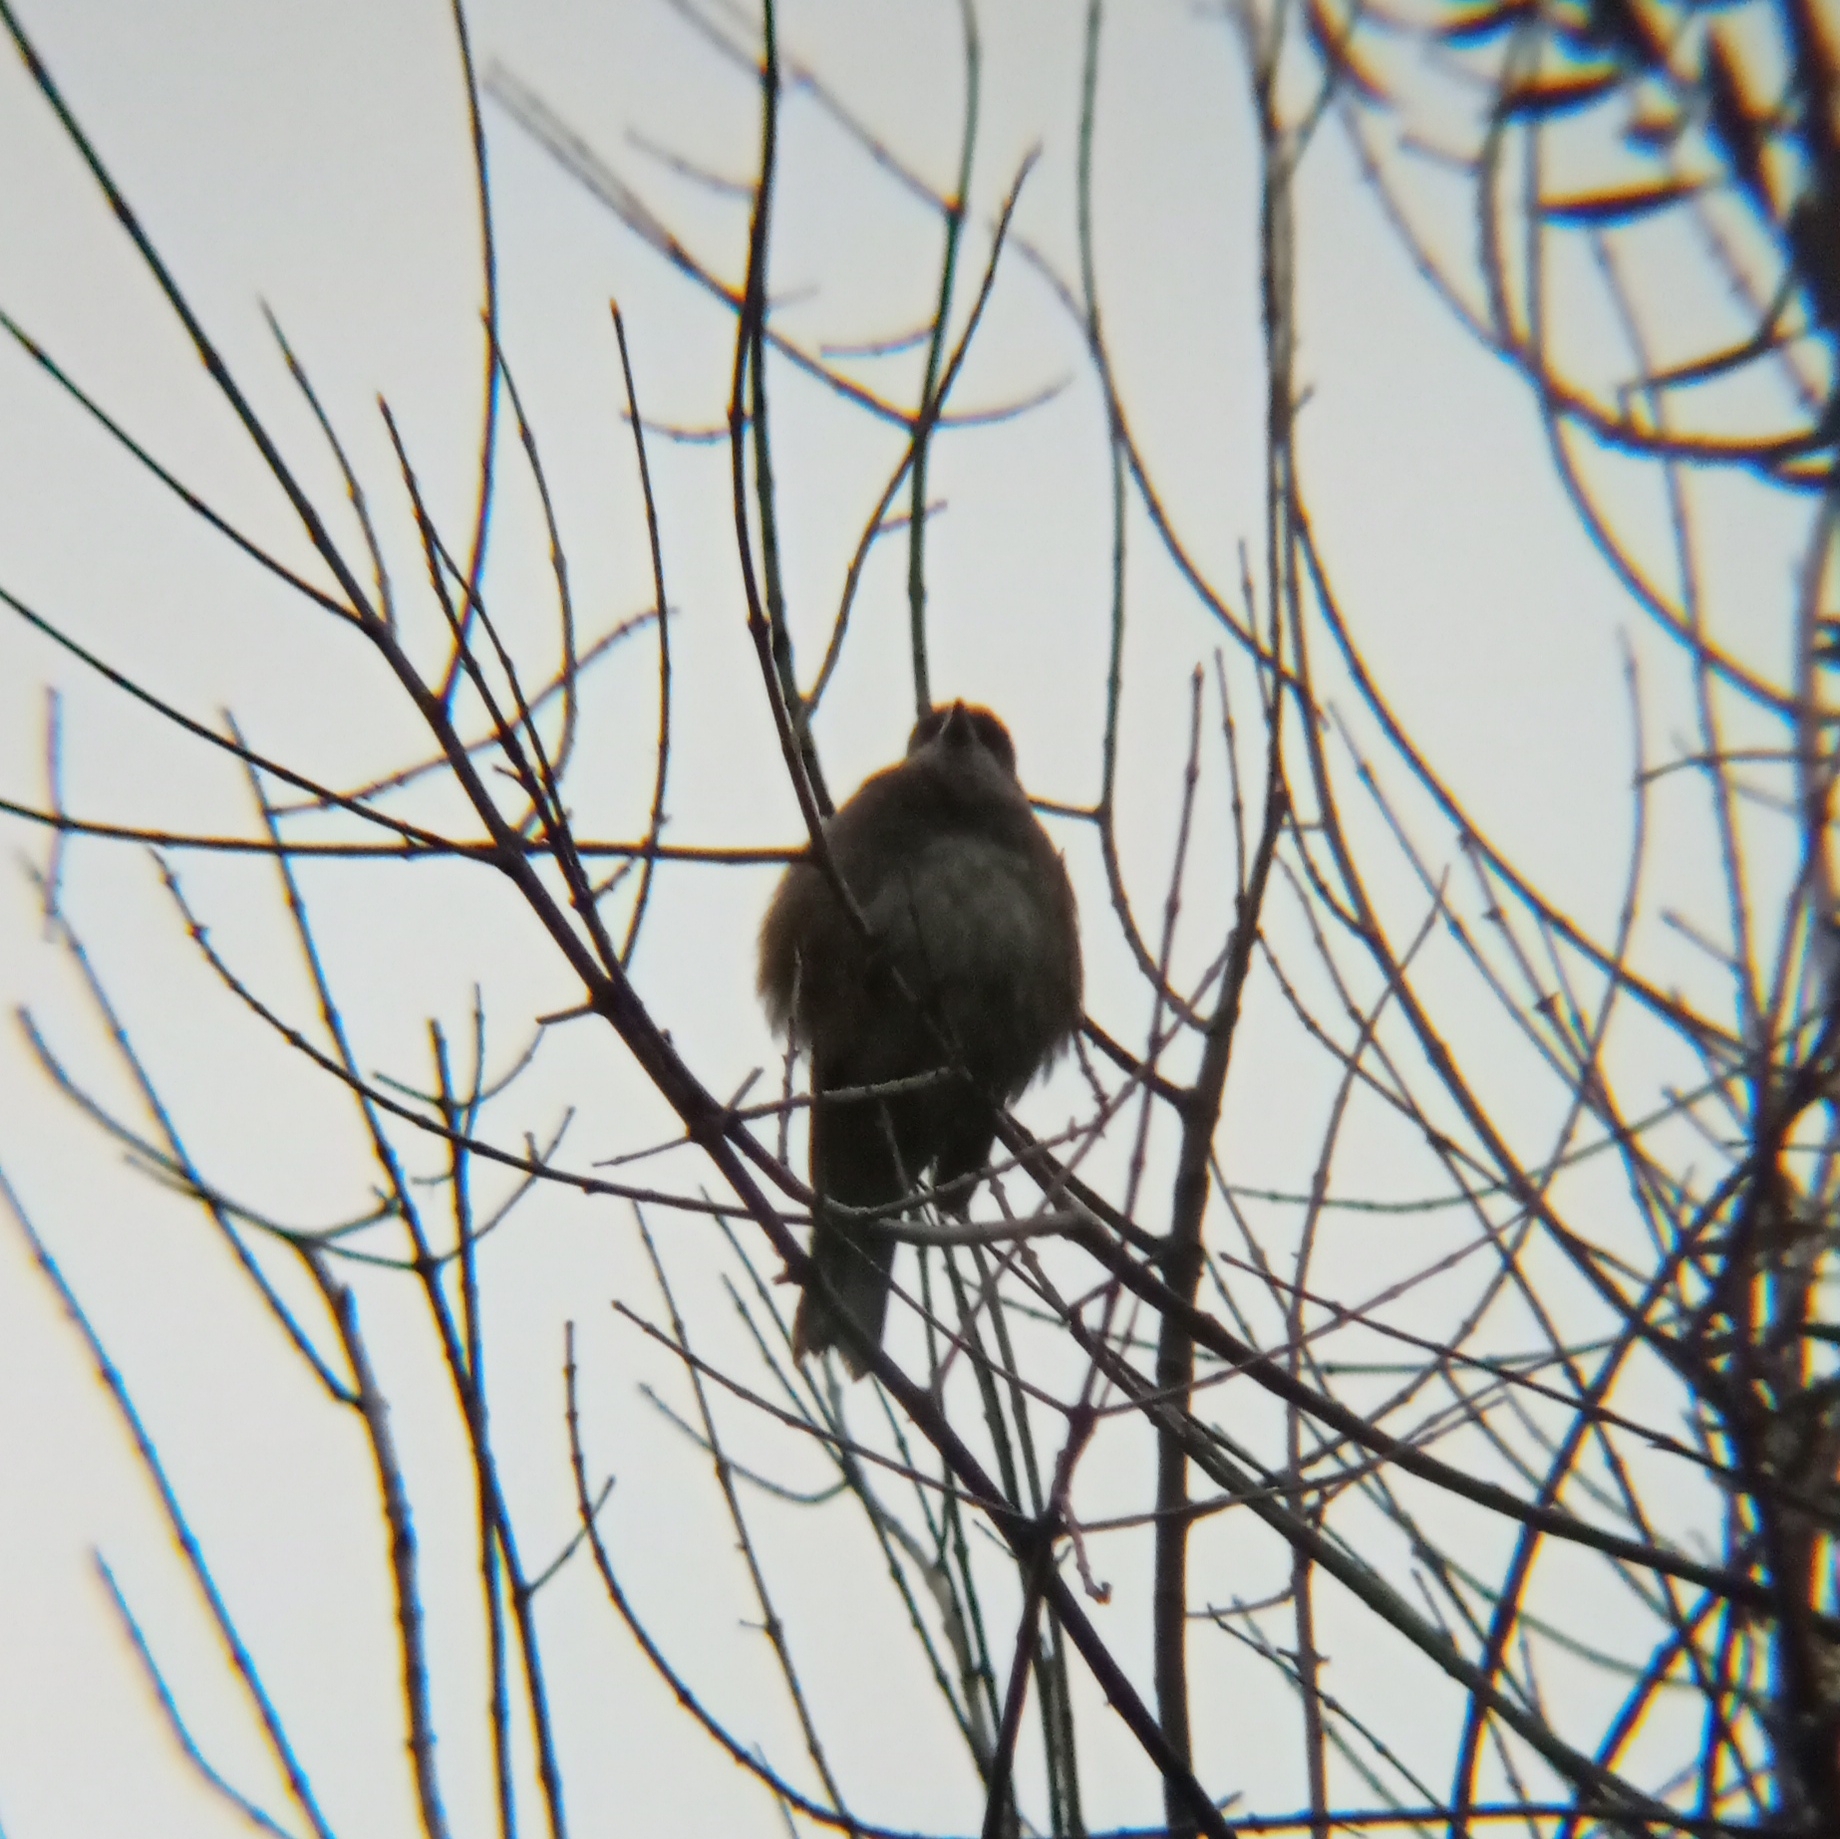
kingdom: Animalia
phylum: Chordata
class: Aves
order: Passeriformes
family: Thraupidae
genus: Diuca
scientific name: Diuca diuca
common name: Common diuca finch
